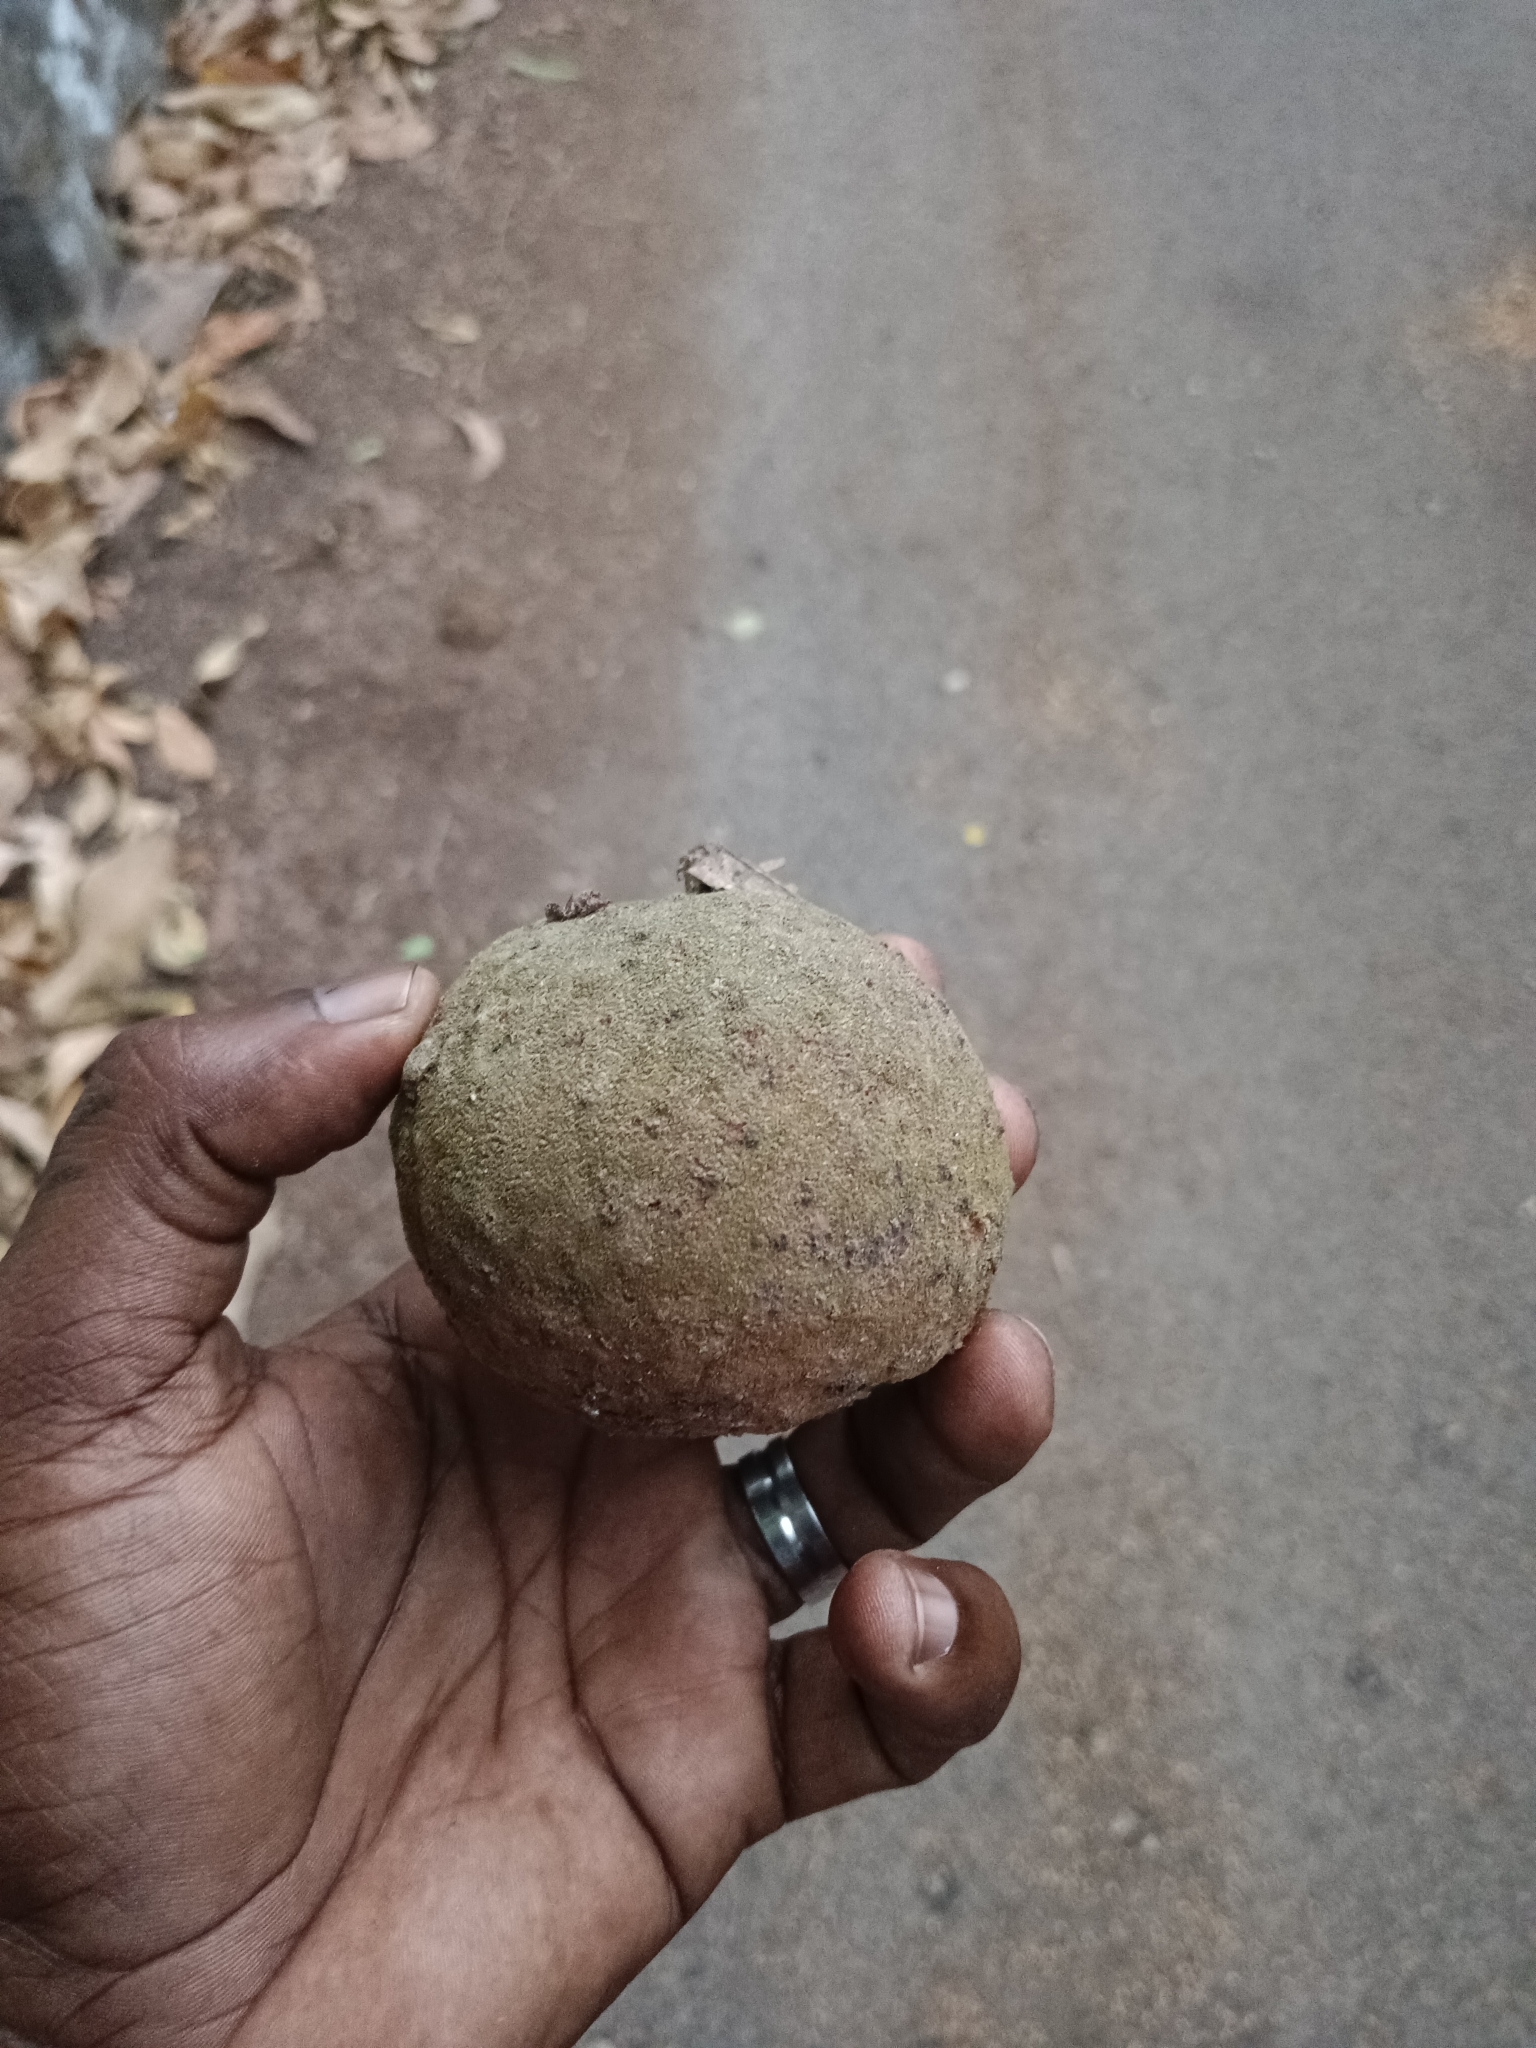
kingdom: Plantae
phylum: Tracheophyta
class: Magnoliopsida
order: Malpighiales
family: Achariaceae
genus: Hydnocarpus
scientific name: Hydnocarpus pentandrus
